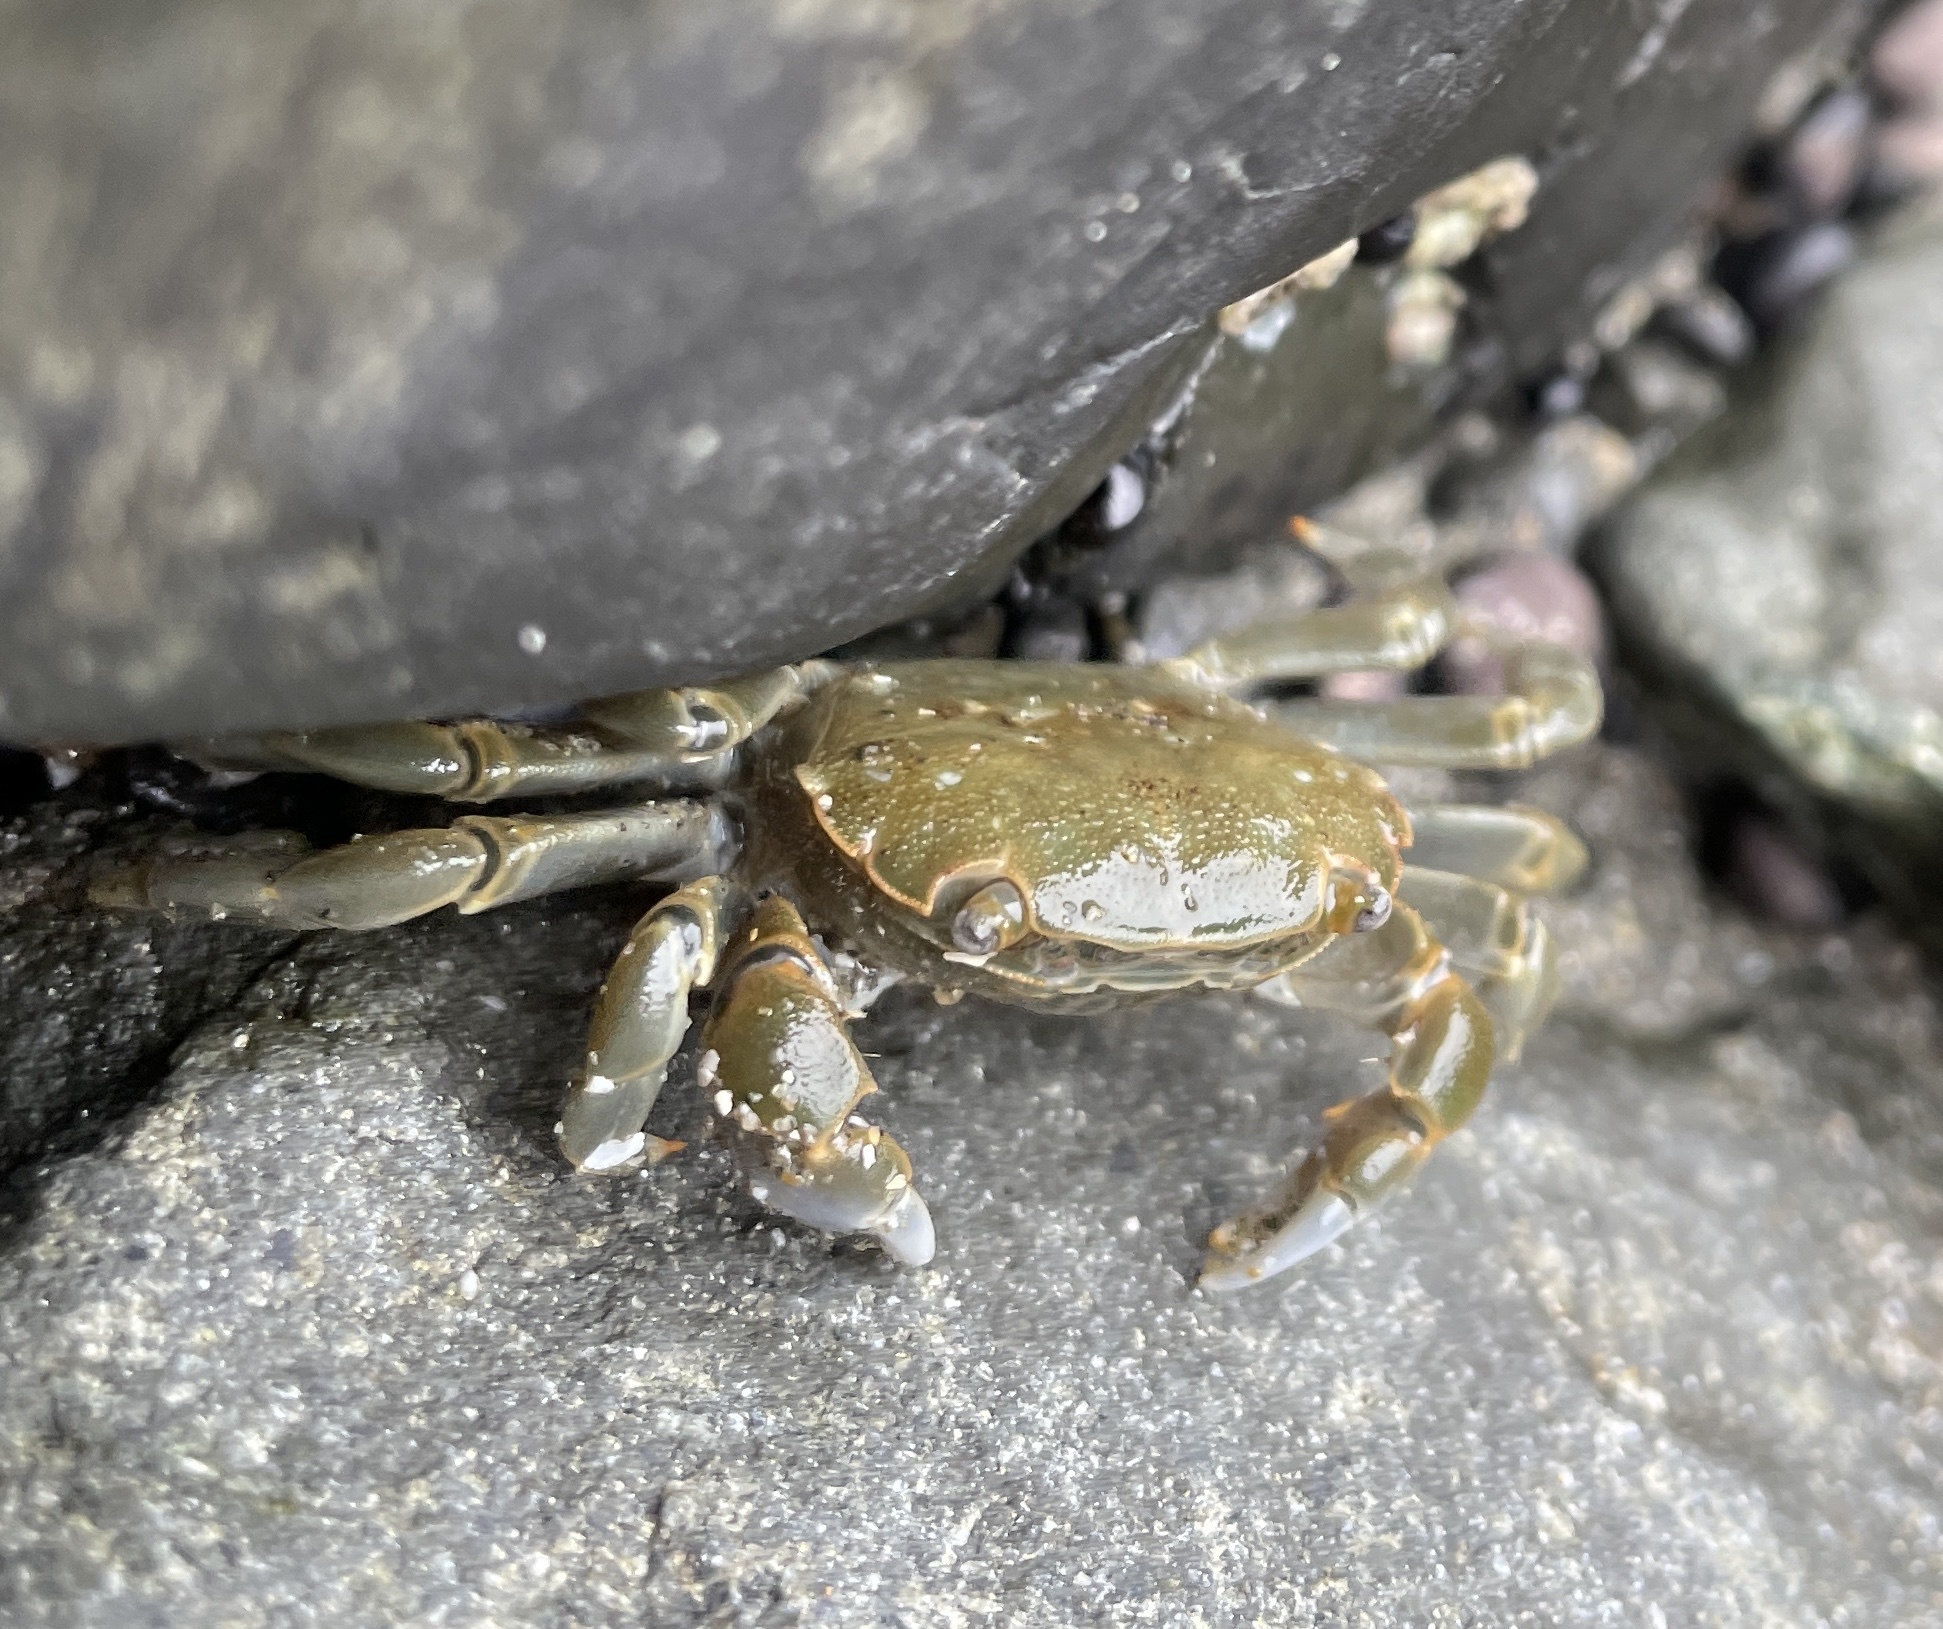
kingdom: Animalia
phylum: Arthropoda
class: Malacostraca
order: Decapoda
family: Varunidae
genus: Hemigrapsus
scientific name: Hemigrapsus nudus
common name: Purple shore crab
